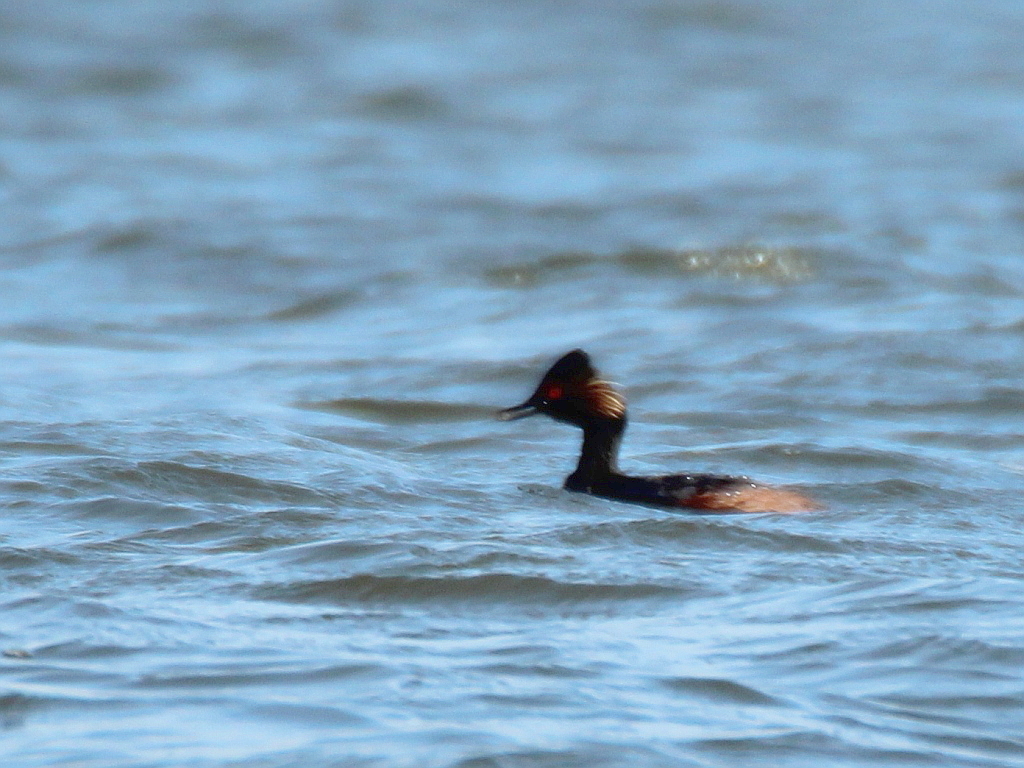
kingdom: Animalia
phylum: Chordata
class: Aves
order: Podicipediformes
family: Podicipedidae
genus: Podiceps
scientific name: Podiceps nigricollis
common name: Black-necked grebe
